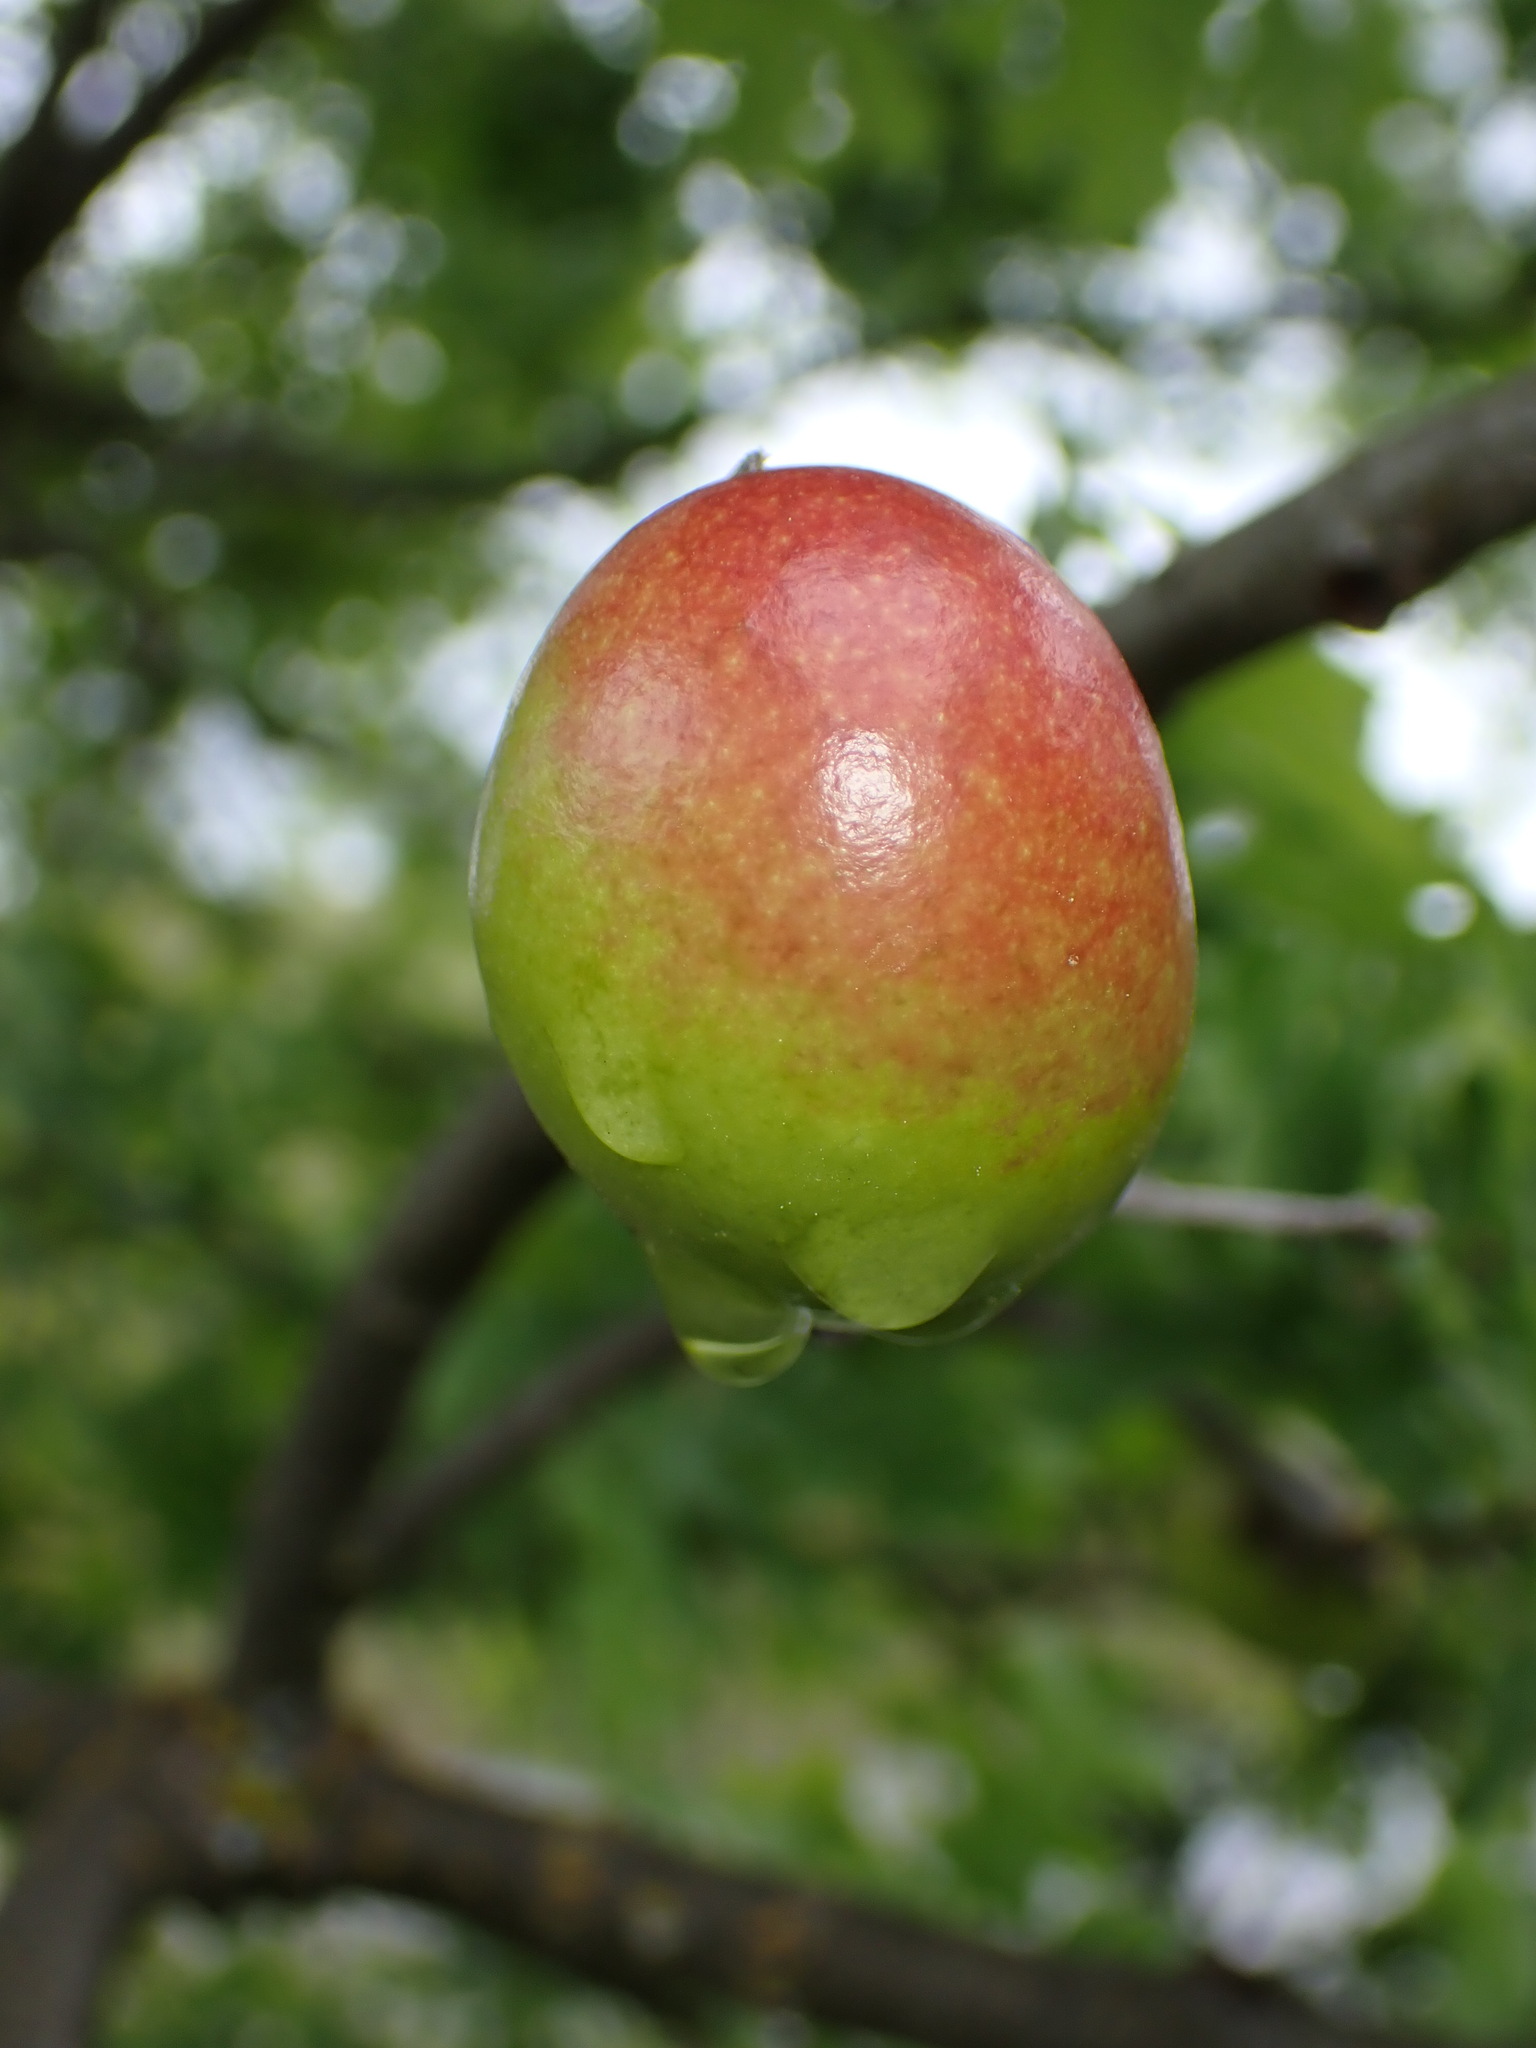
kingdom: Animalia
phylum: Arthropoda
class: Insecta
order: Hymenoptera
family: Cynipidae
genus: Andricus
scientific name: Andricus quercuscalifornicus
